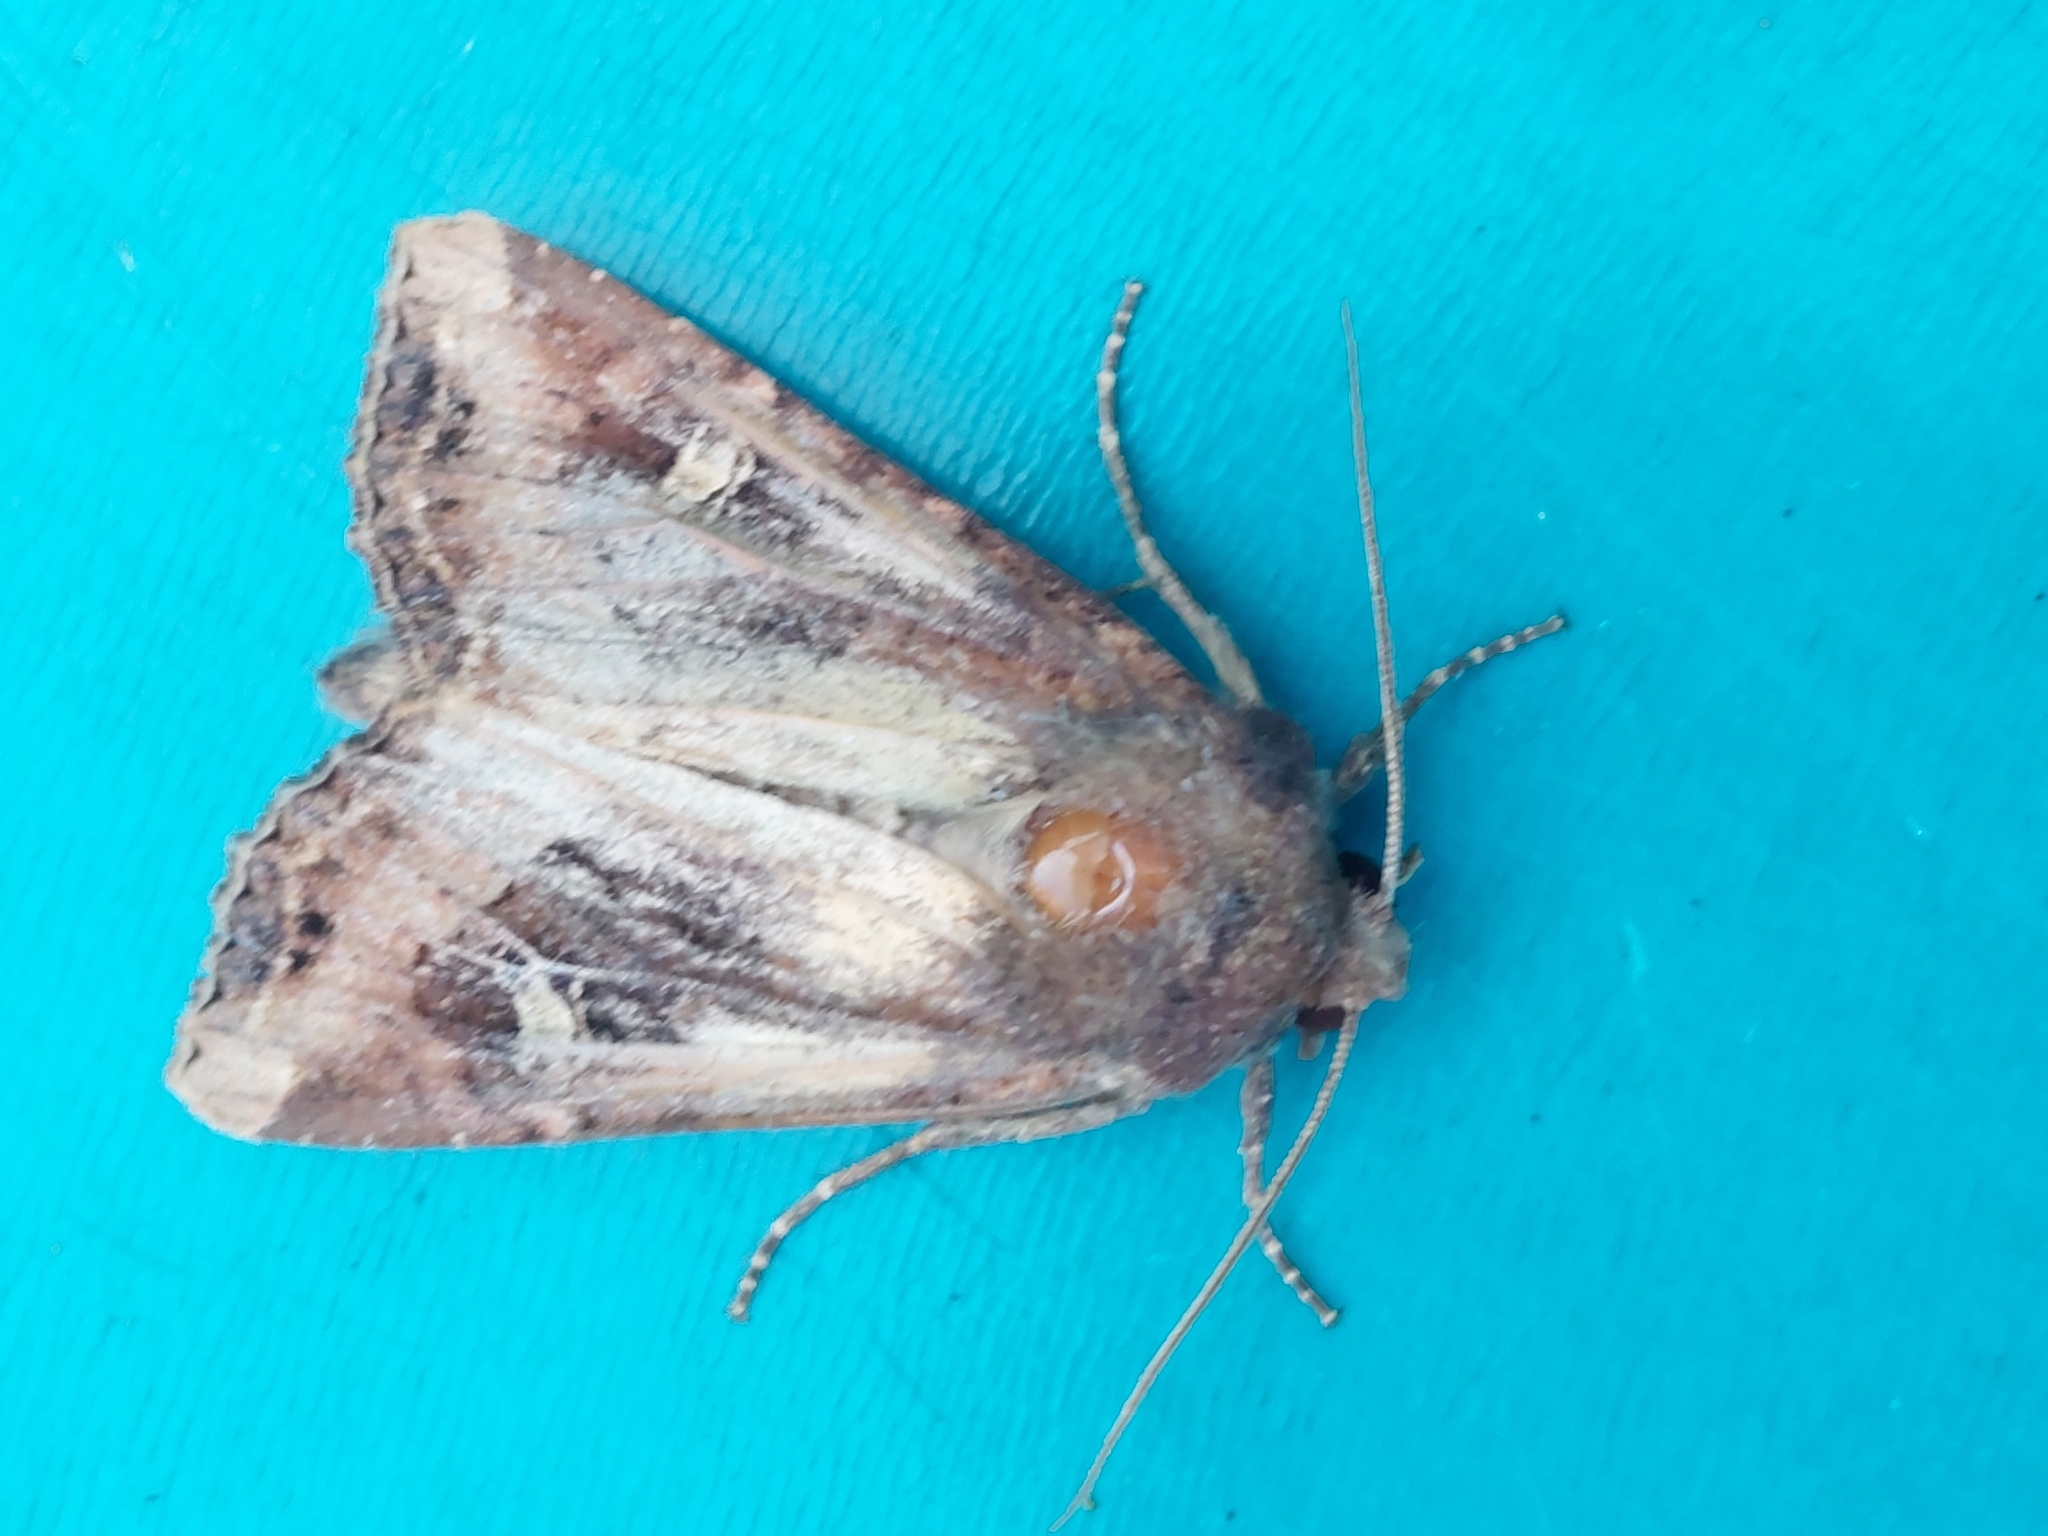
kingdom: Animalia
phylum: Arthropoda
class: Insecta
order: Lepidoptera
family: Noctuidae
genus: Helotropha
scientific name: Helotropha leucostigma
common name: The crescent
